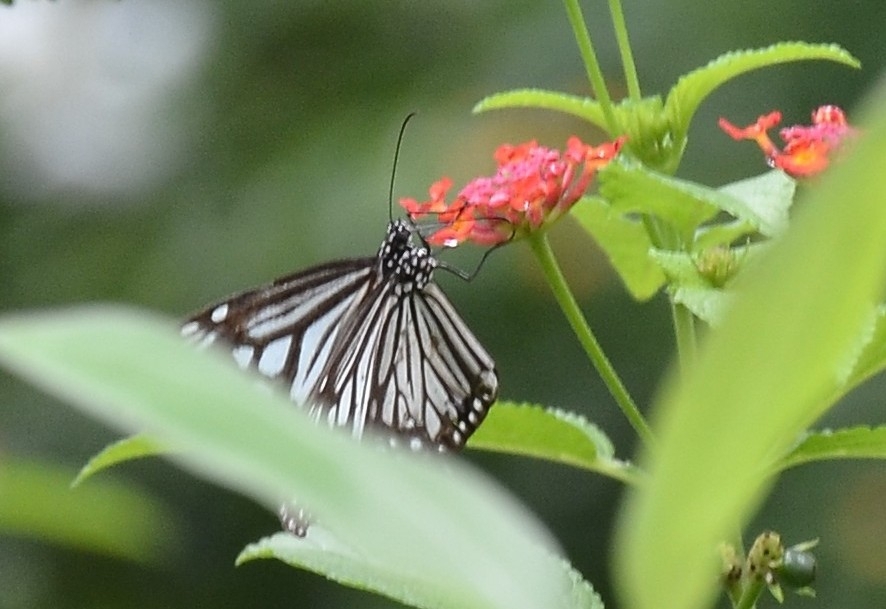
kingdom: Animalia
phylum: Arthropoda
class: Insecta
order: Lepidoptera
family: Nymphalidae
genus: Parantica
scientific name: Parantica aglea
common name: Glassy tiger
